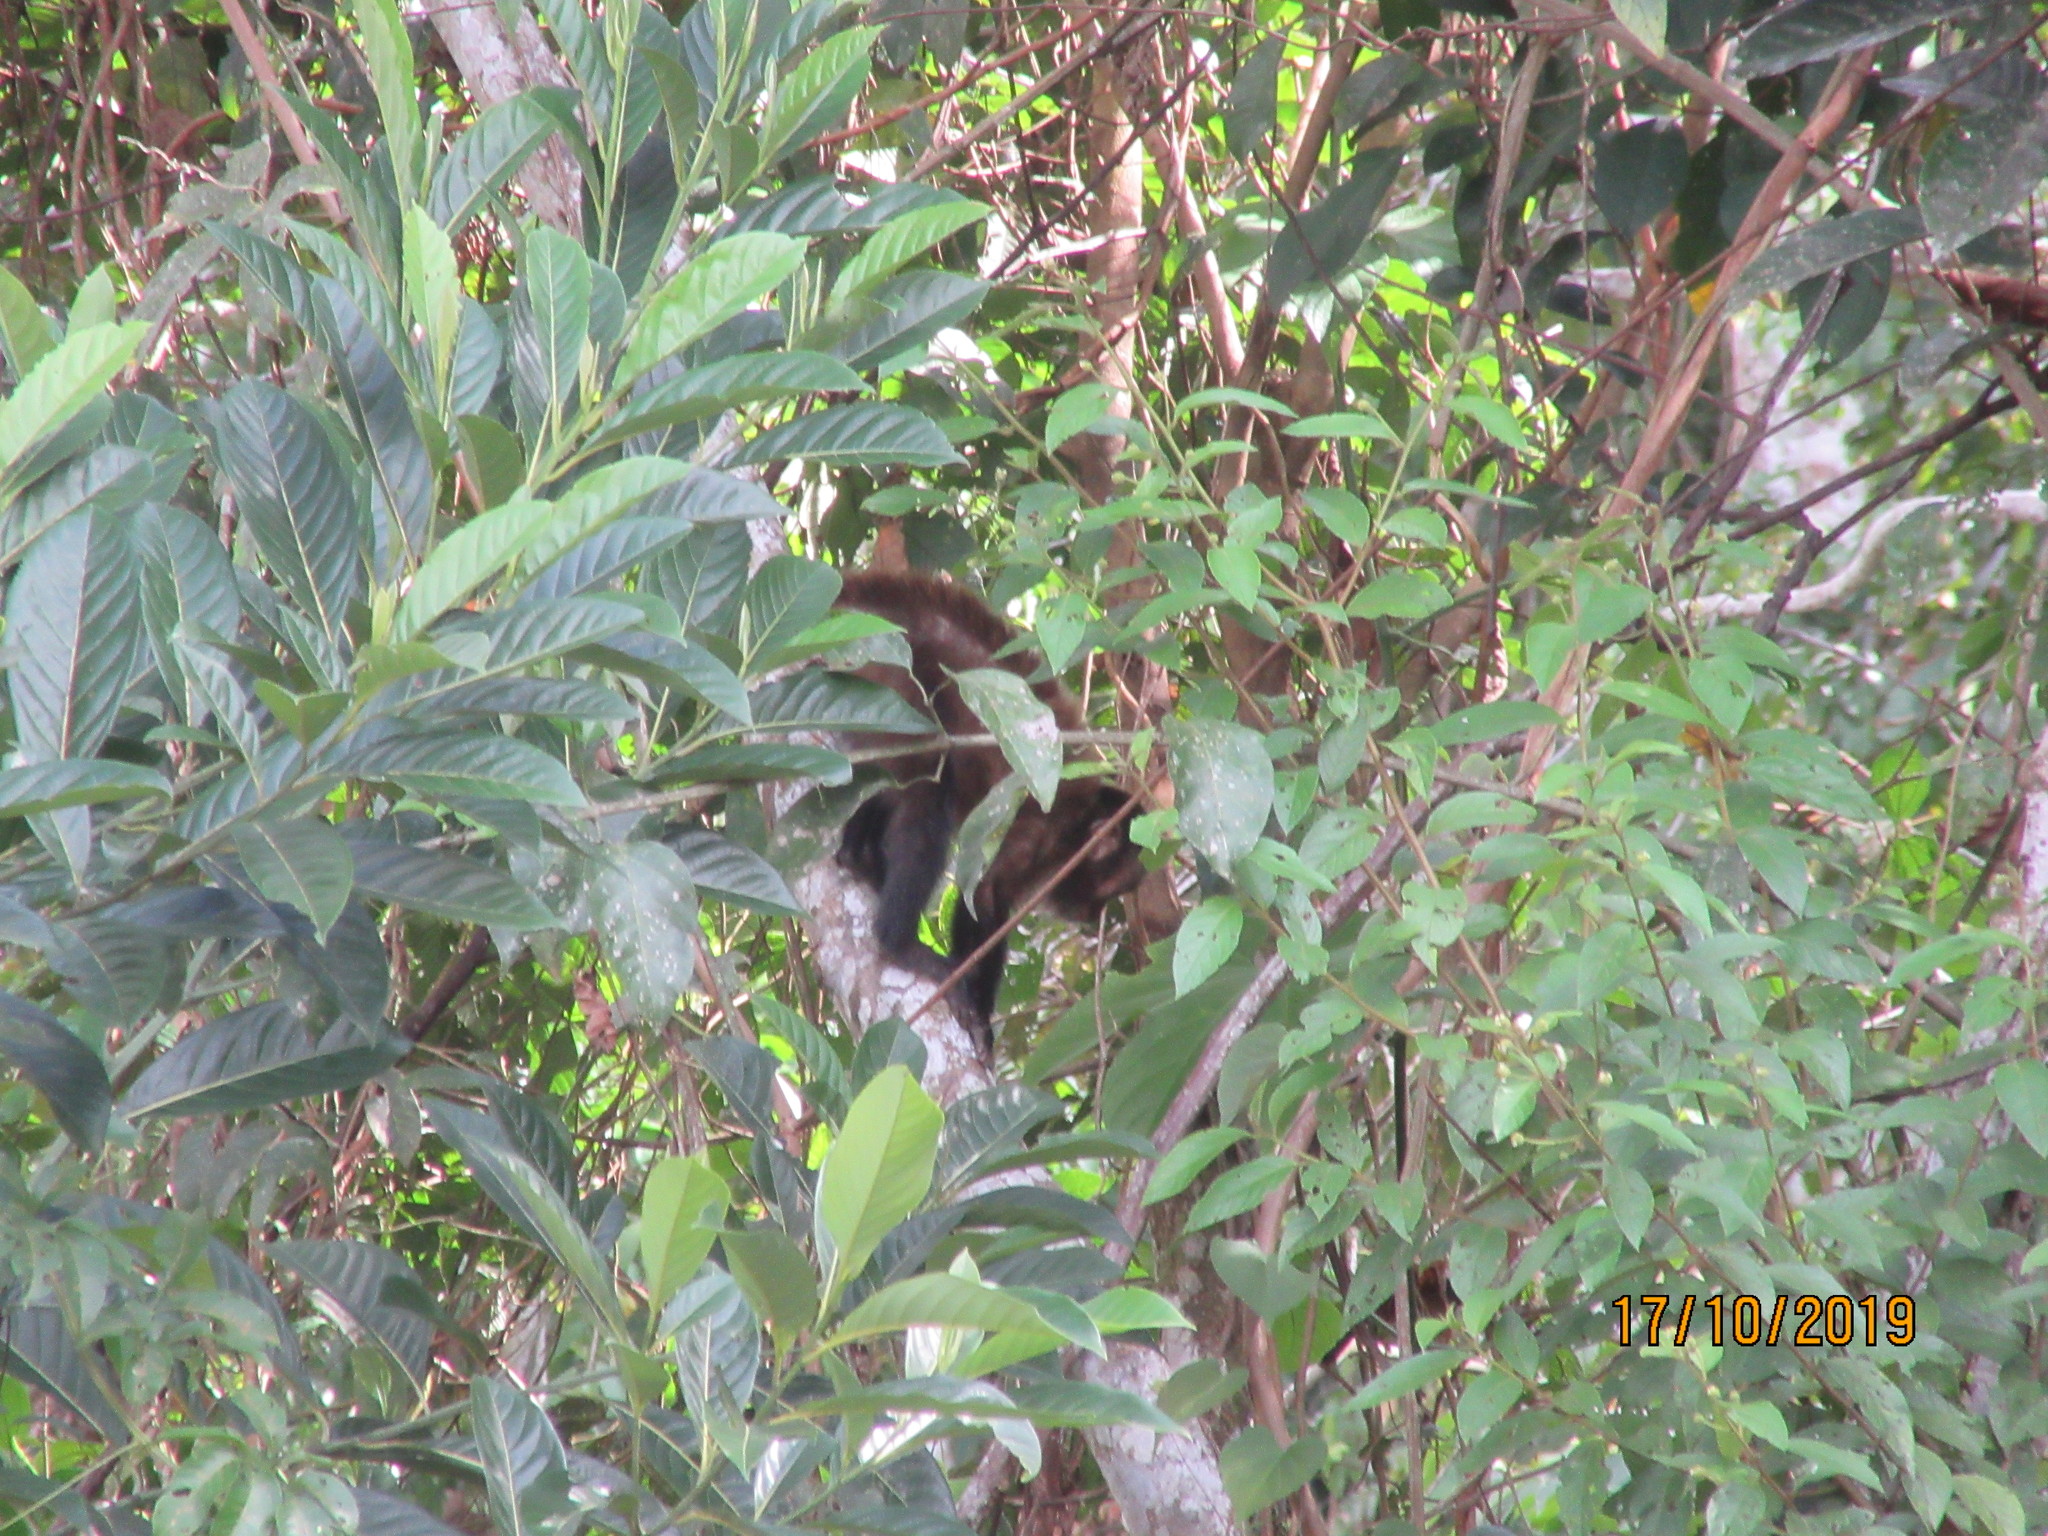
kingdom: Animalia
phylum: Chordata
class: Mammalia
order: Primates
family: Cebidae
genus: Sapajus
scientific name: Sapajus apella
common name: Tufted capuchin
